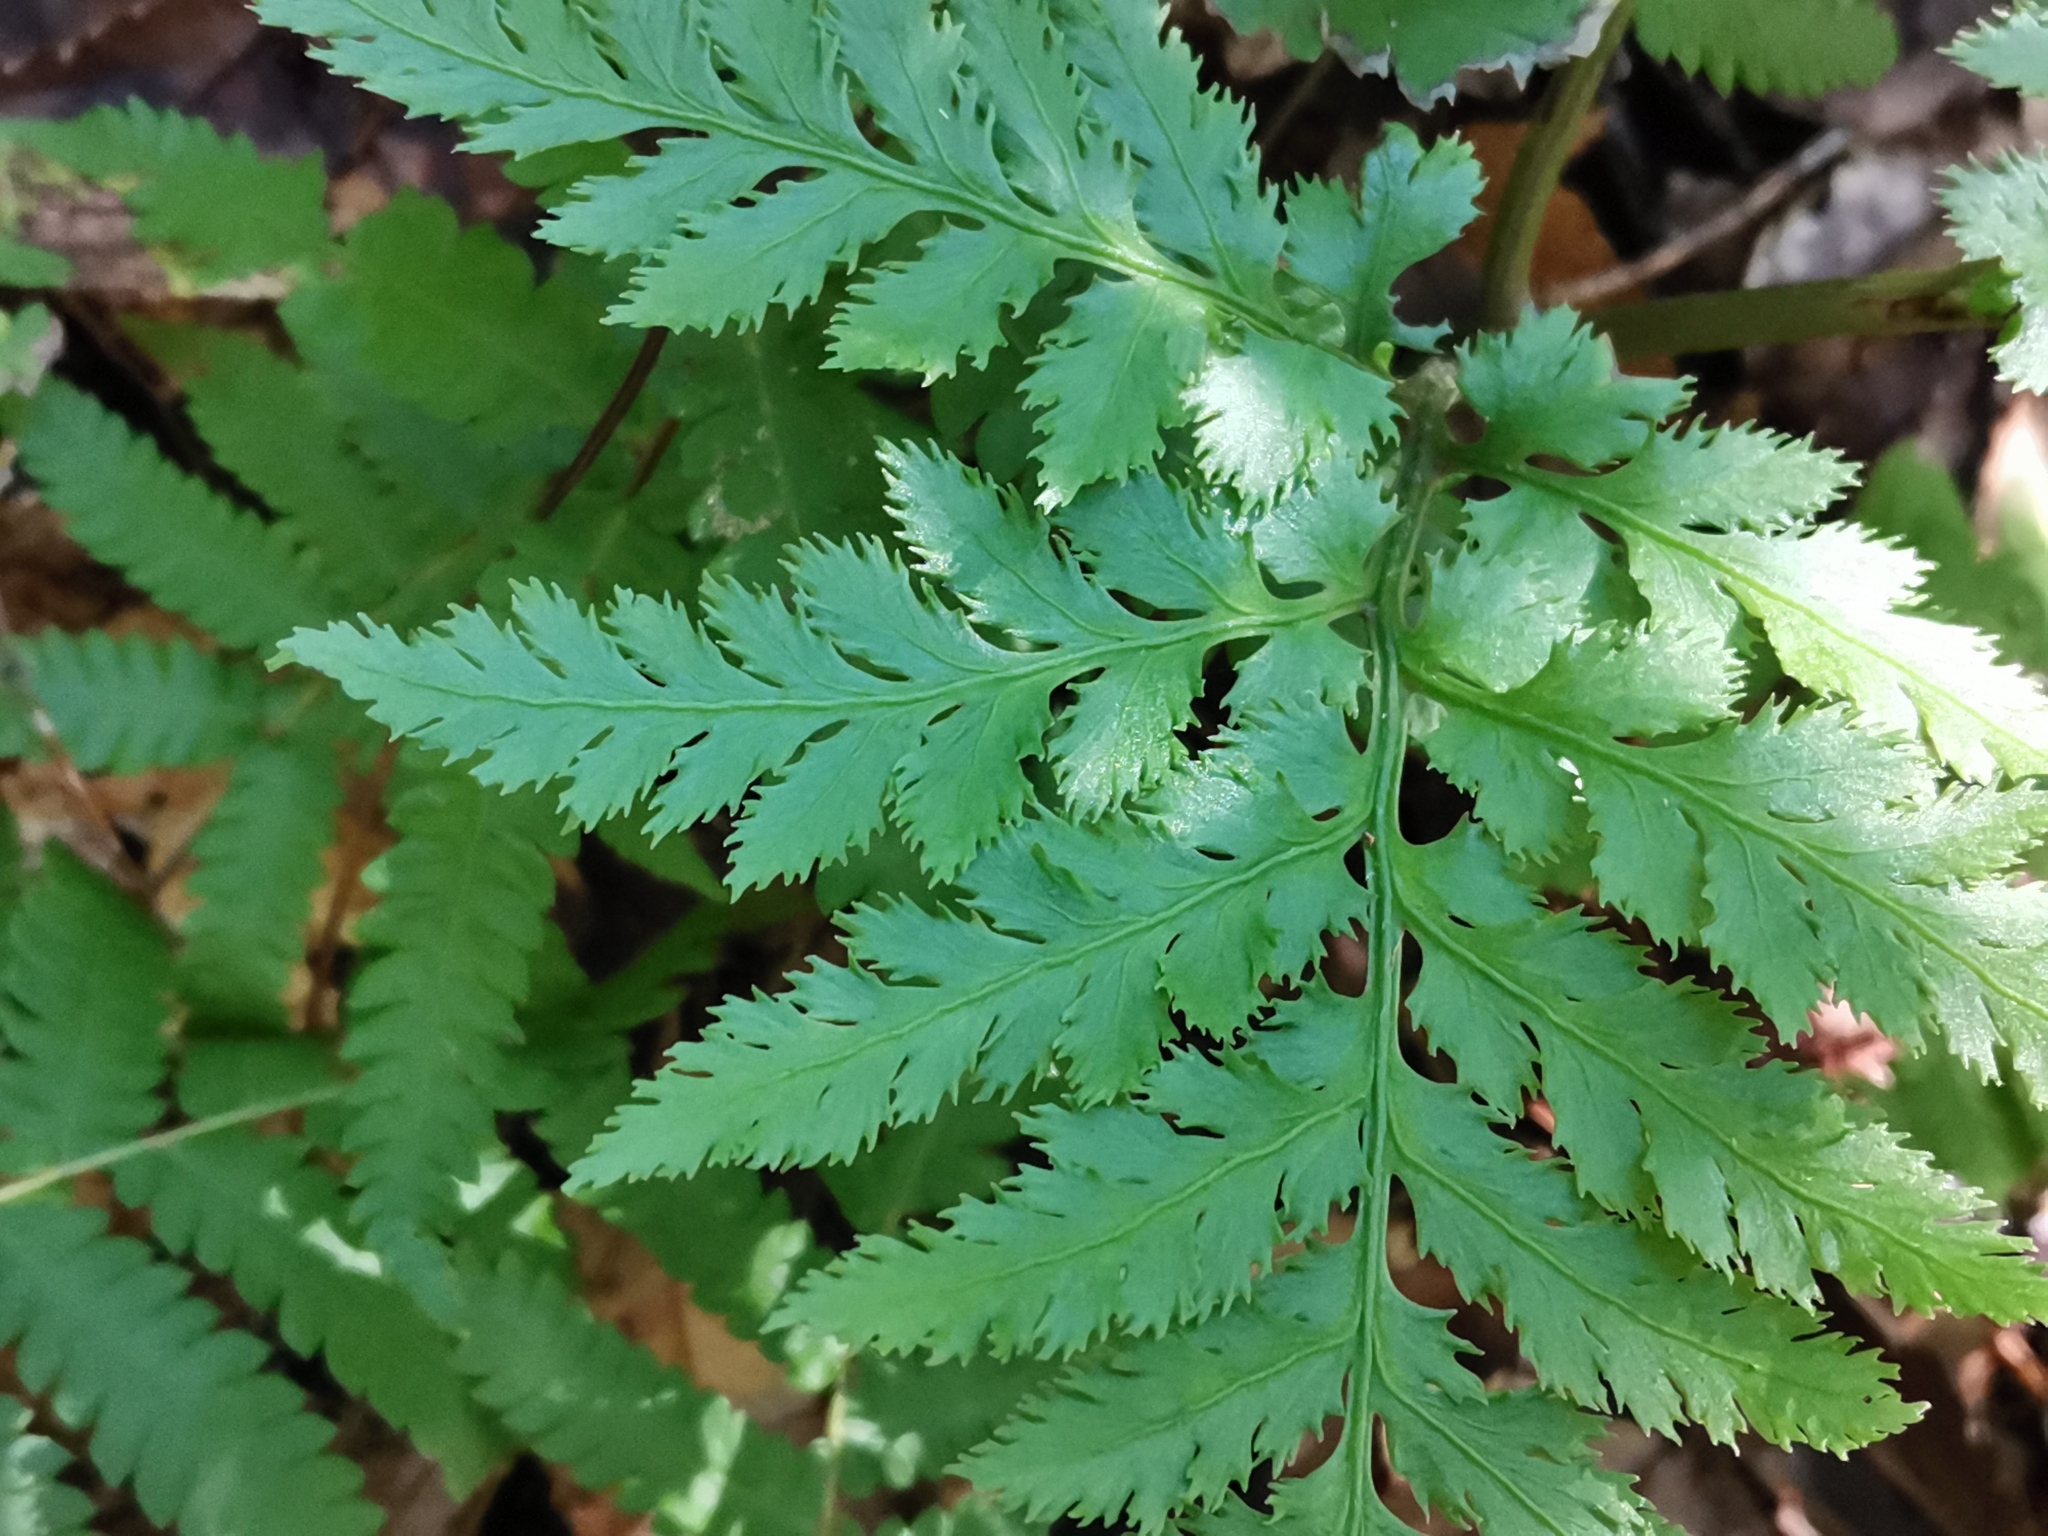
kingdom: Plantae
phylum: Tracheophyta
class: Polypodiopsida
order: Ophioglossales
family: Ophioglossaceae
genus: Sceptridium
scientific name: Sceptridium japonicum
